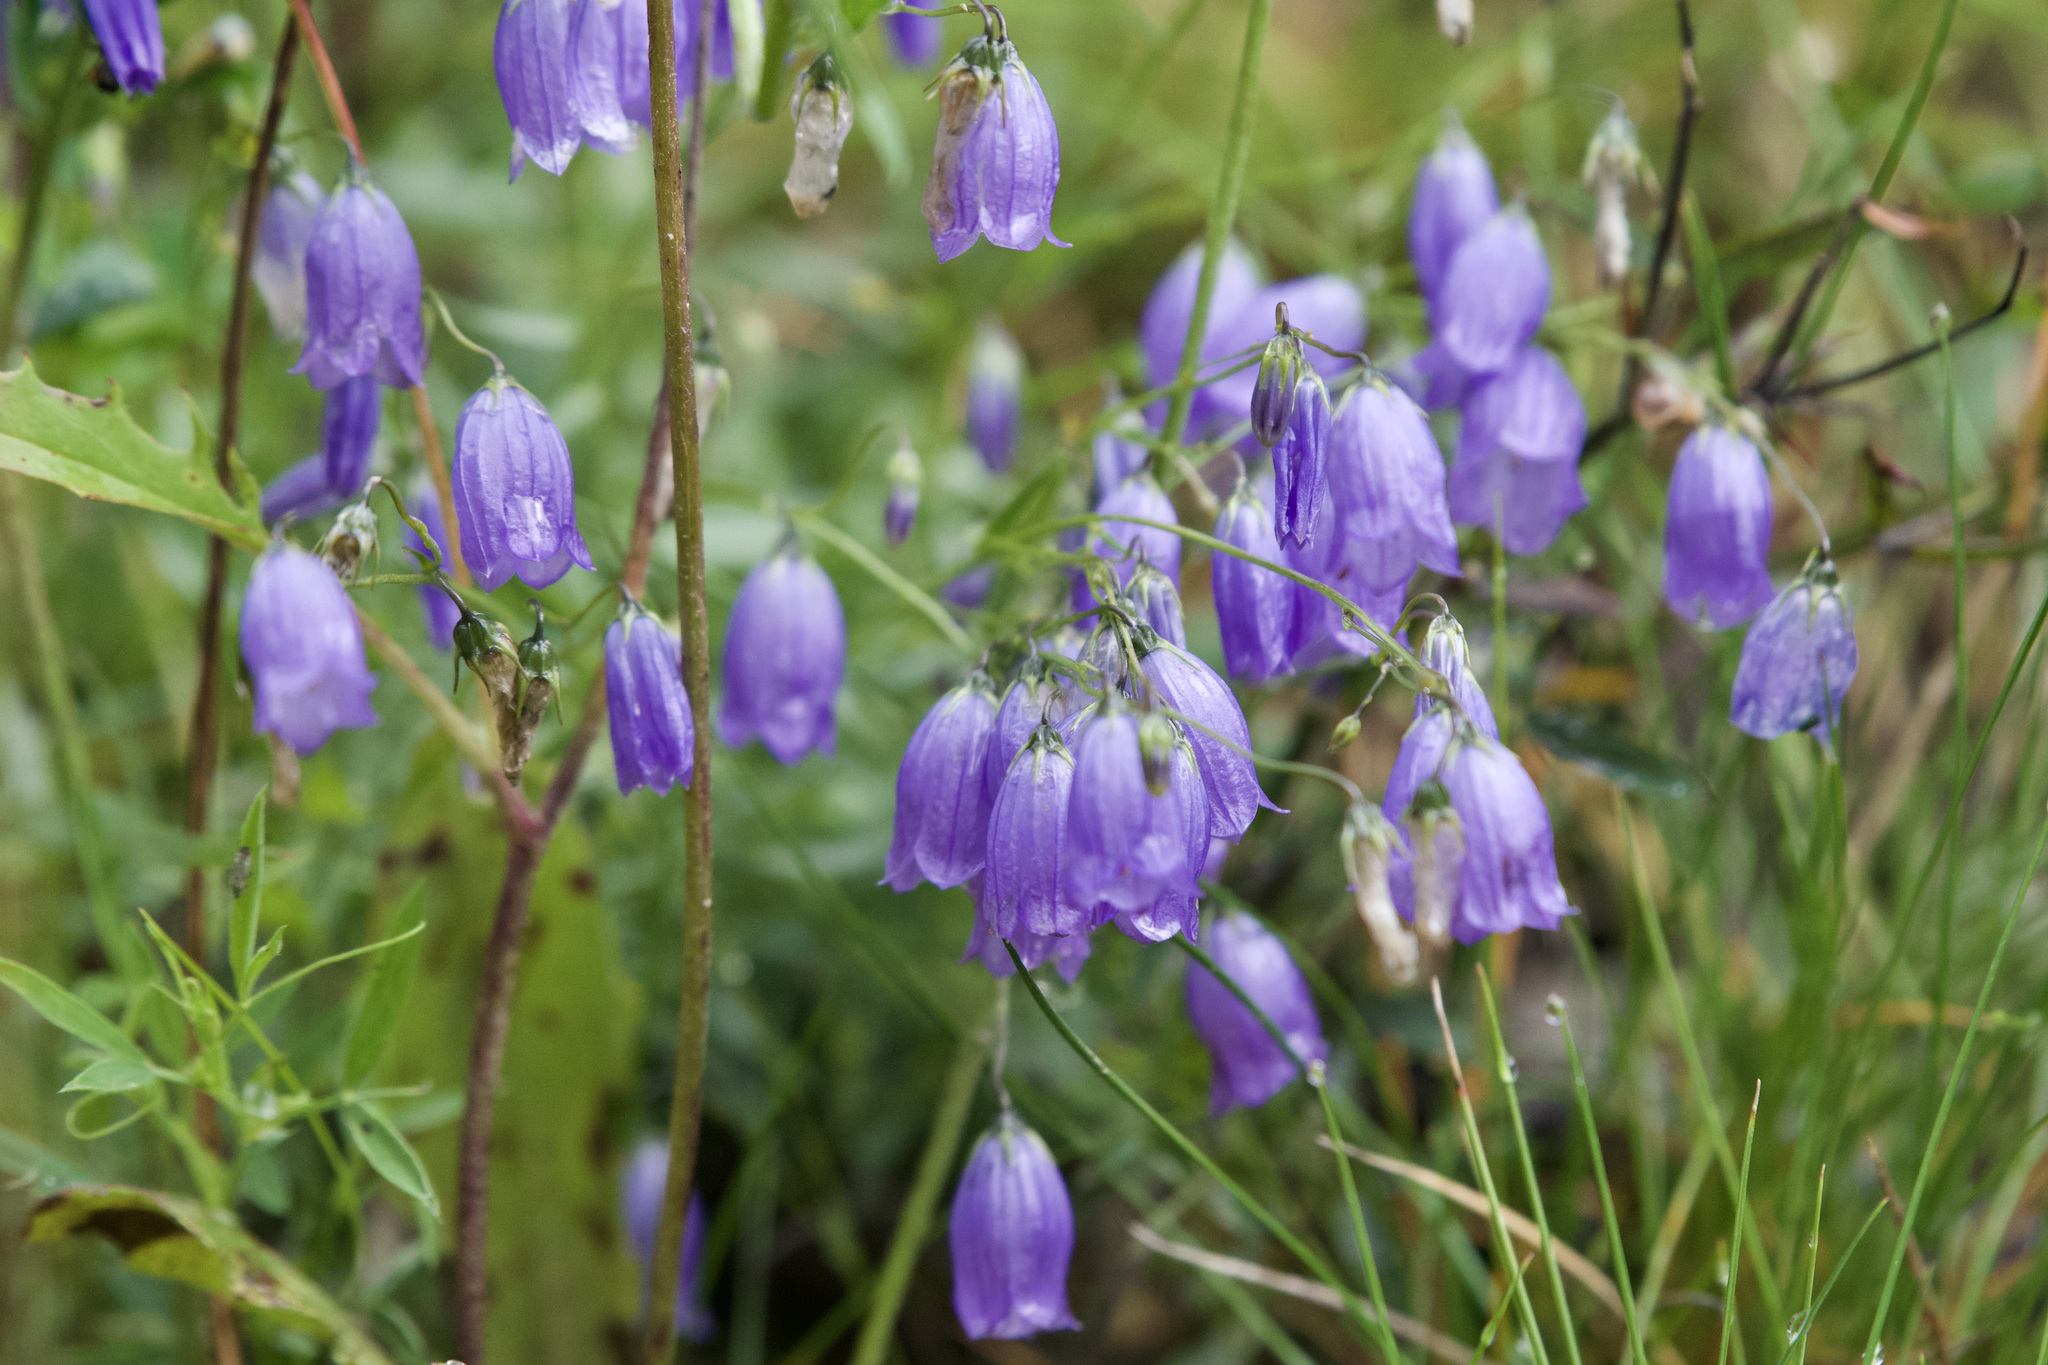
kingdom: Plantae
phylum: Tracheophyta
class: Magnoliopsida
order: Asterales
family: Campanulaceae
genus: Campanula
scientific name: Campanula cespitosa
